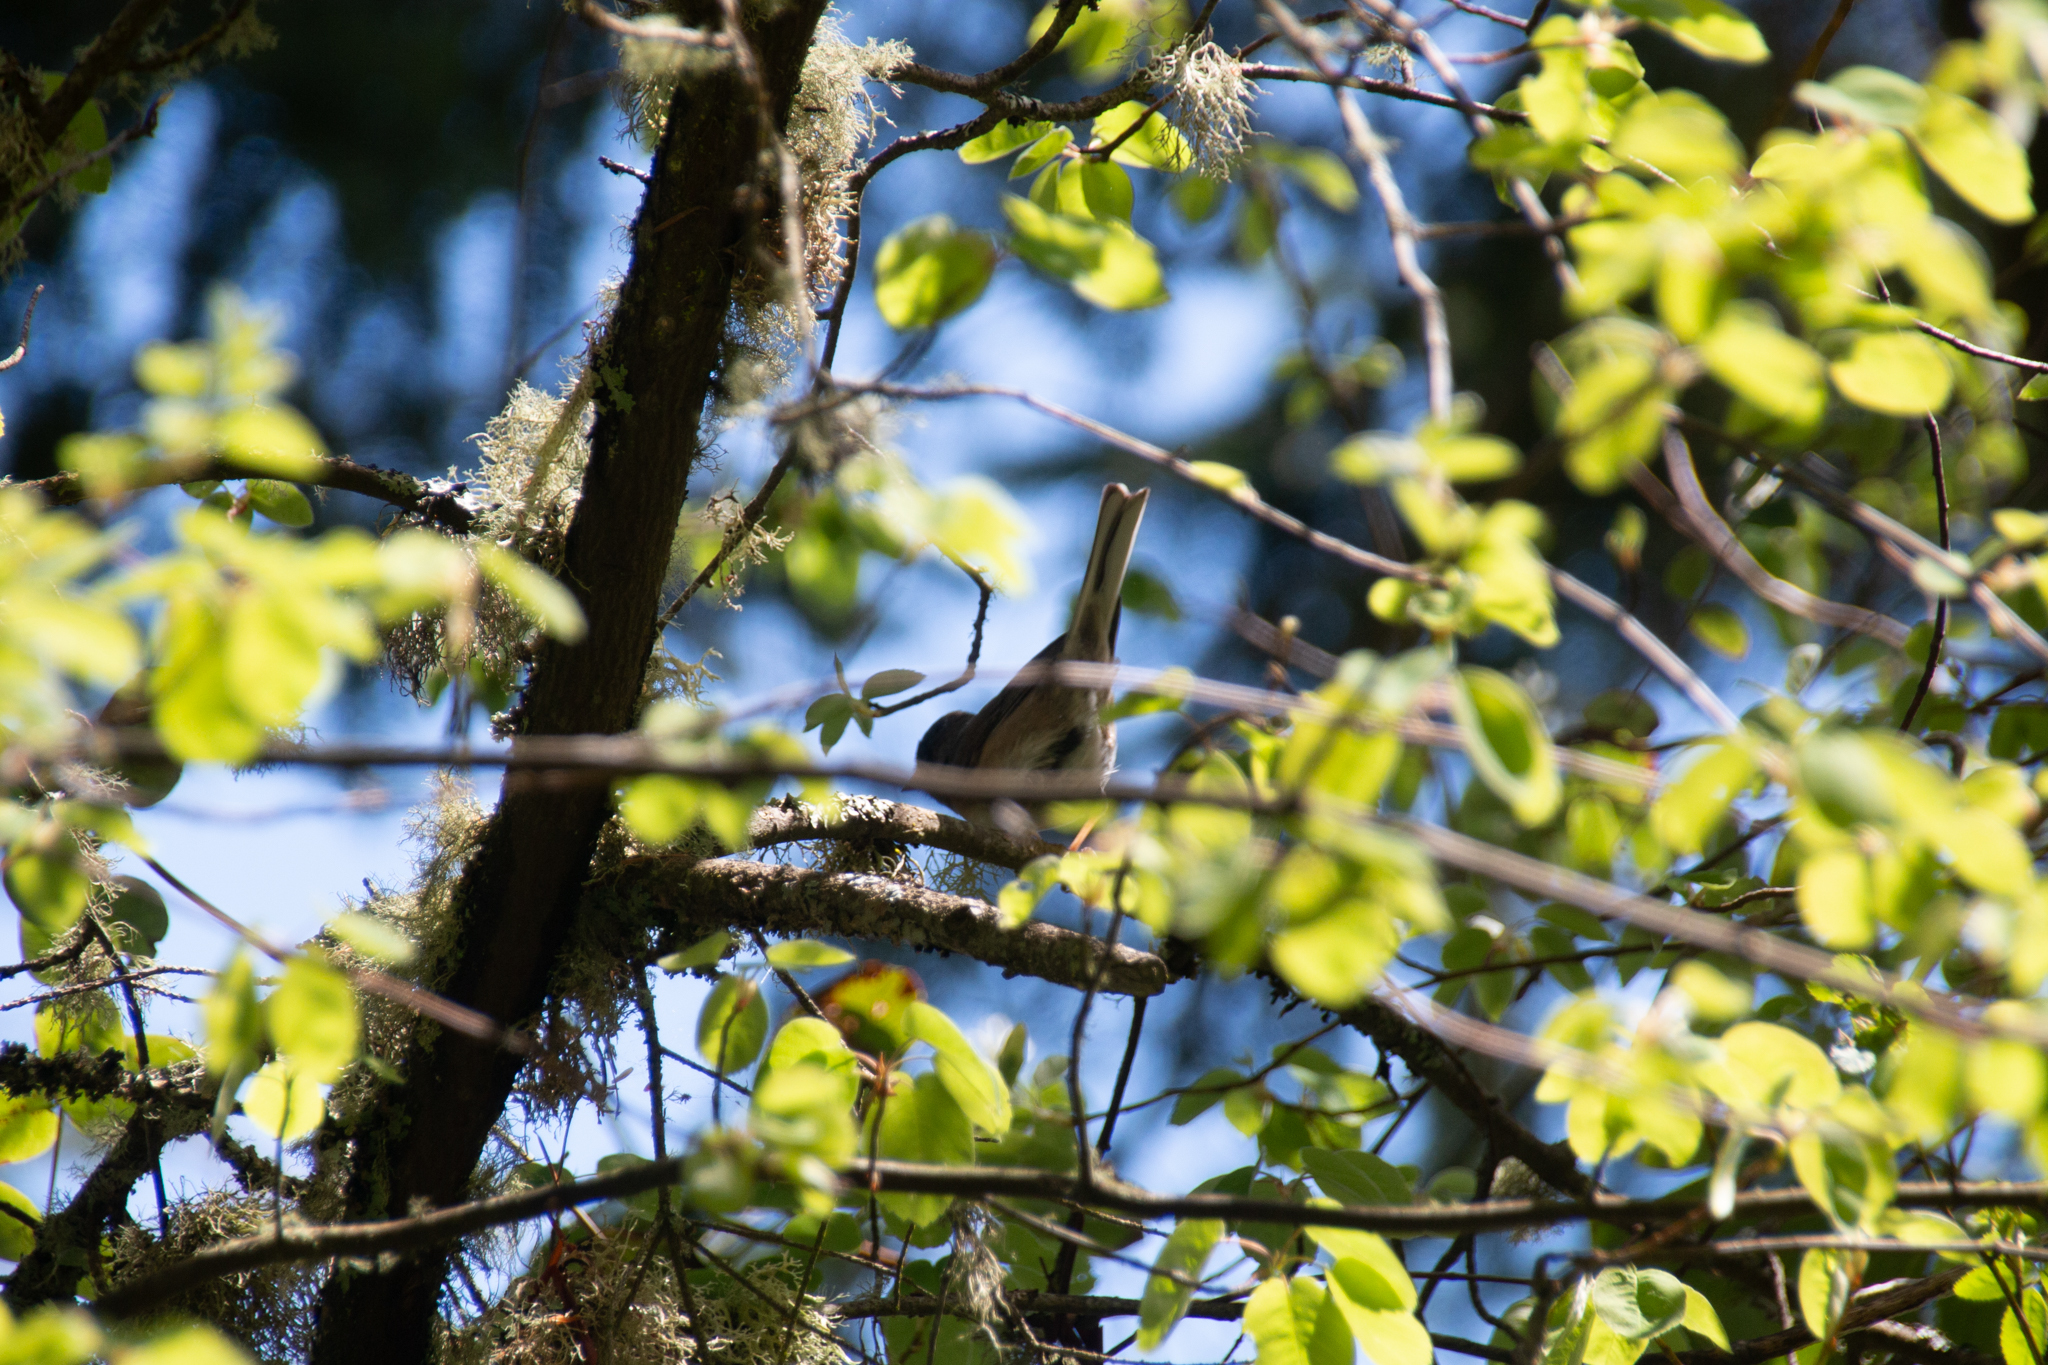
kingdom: Animalia
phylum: Chordata
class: Aves
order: Passeriformes
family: Passerellidae
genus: Junco
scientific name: Junco hyemalis
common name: Dark-eyed junco
